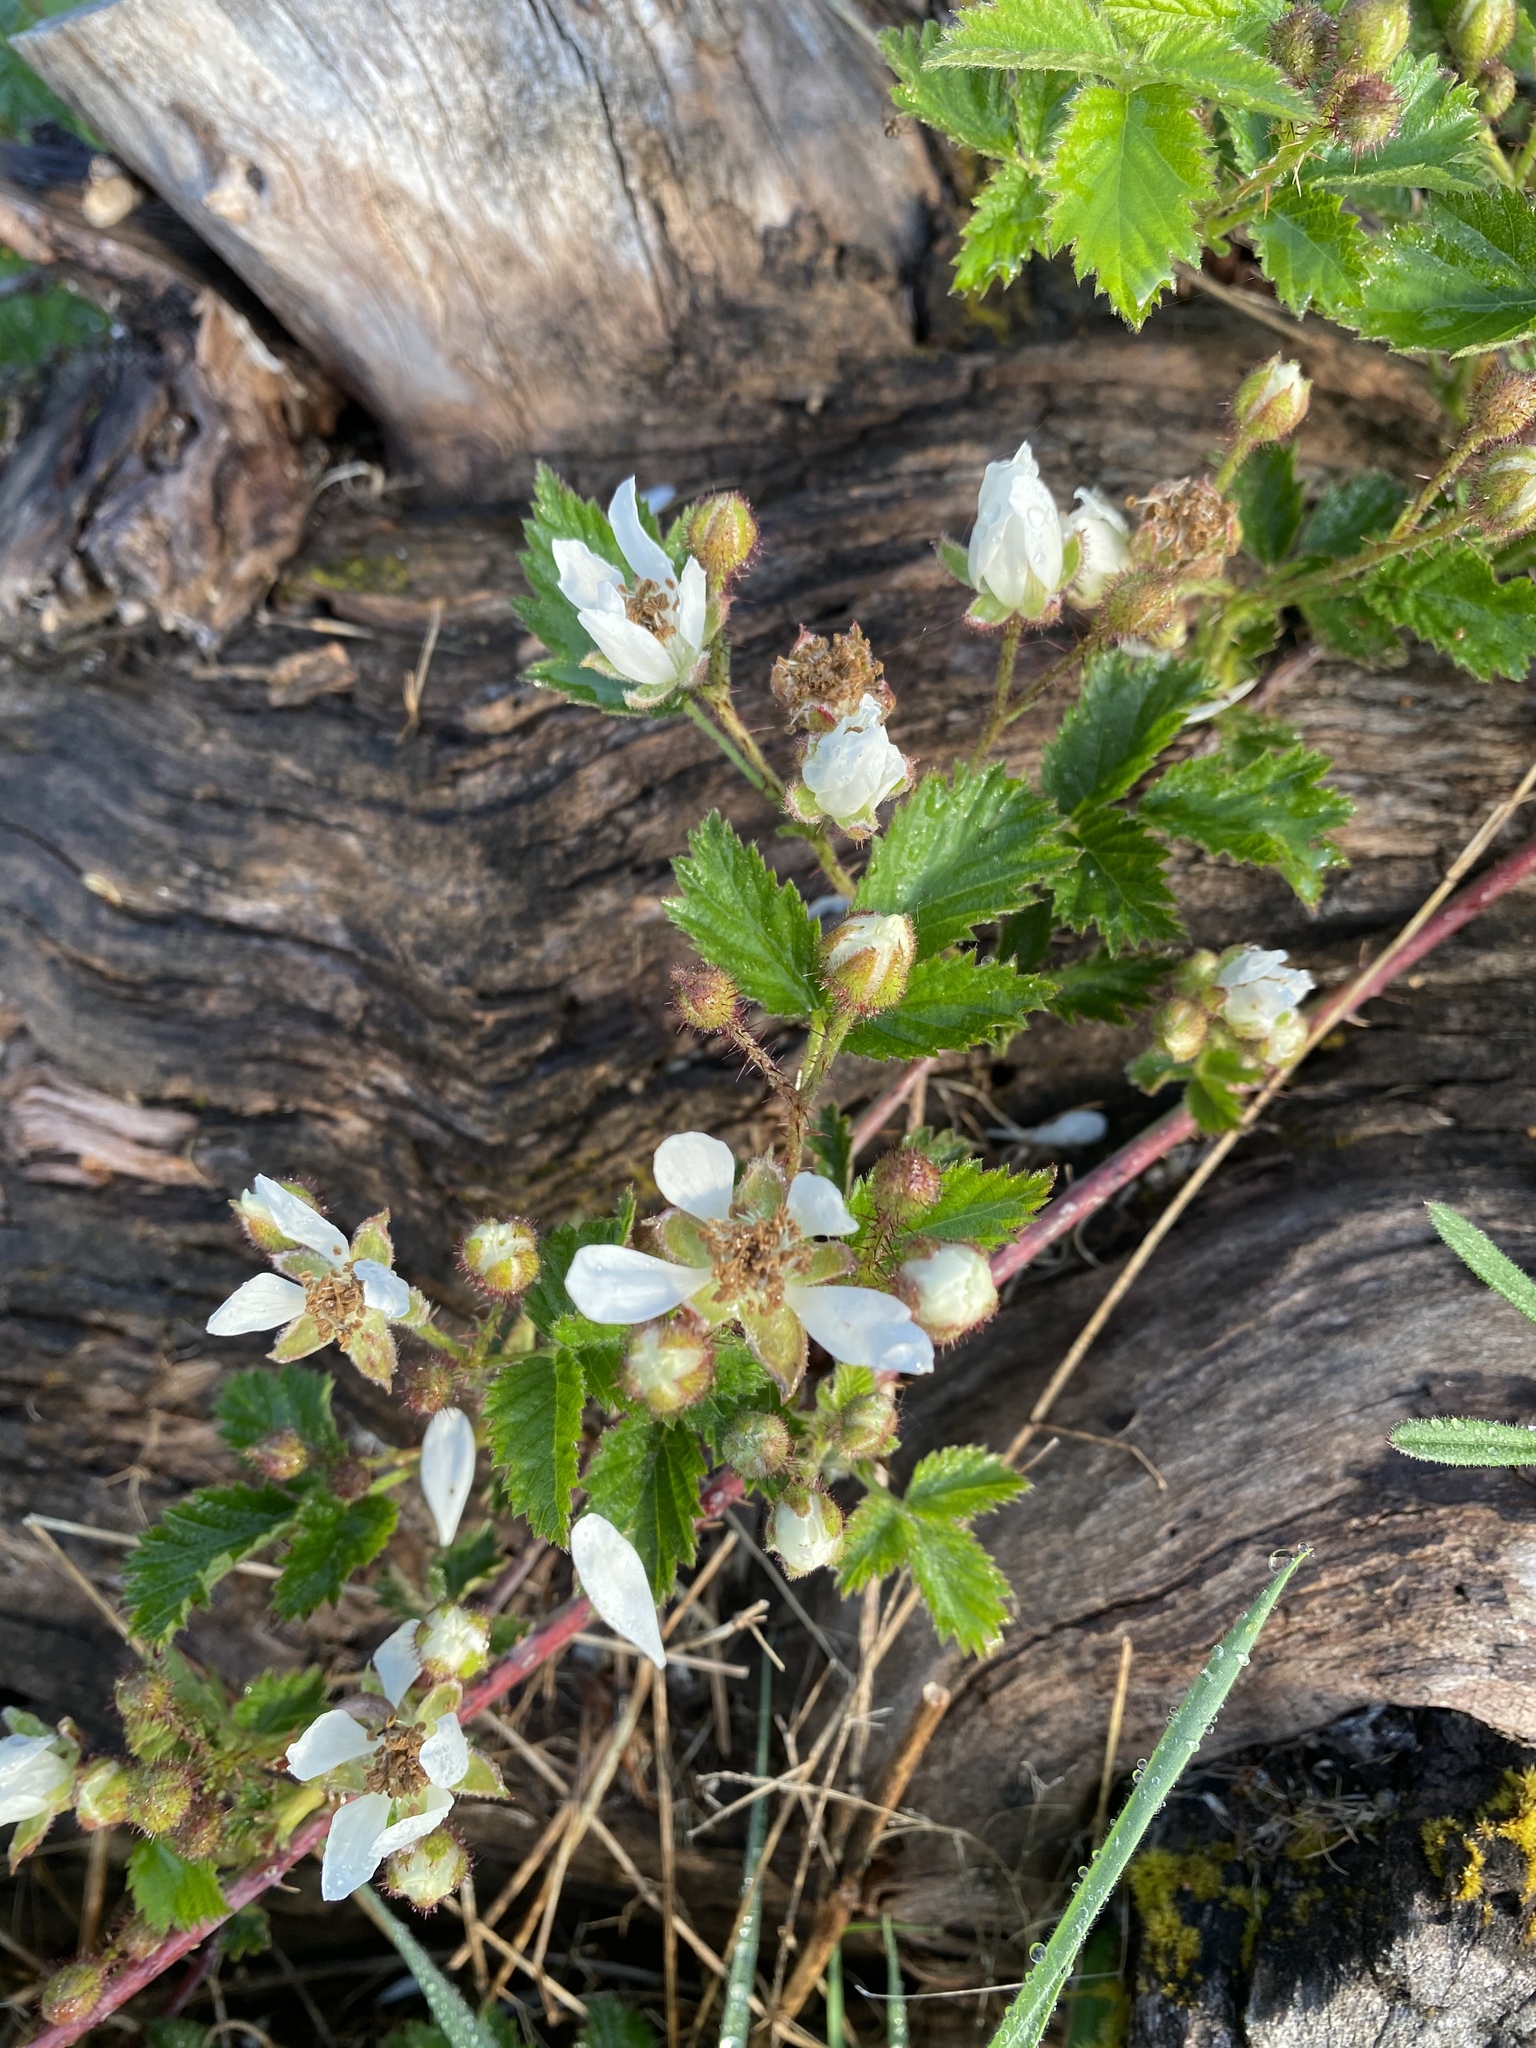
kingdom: Plantae
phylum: Tracheophyta
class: Magnoliopsida
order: Rosales
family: Rosaceae
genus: Rubus
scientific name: Rubus ursinus
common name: Pacific blackberry
